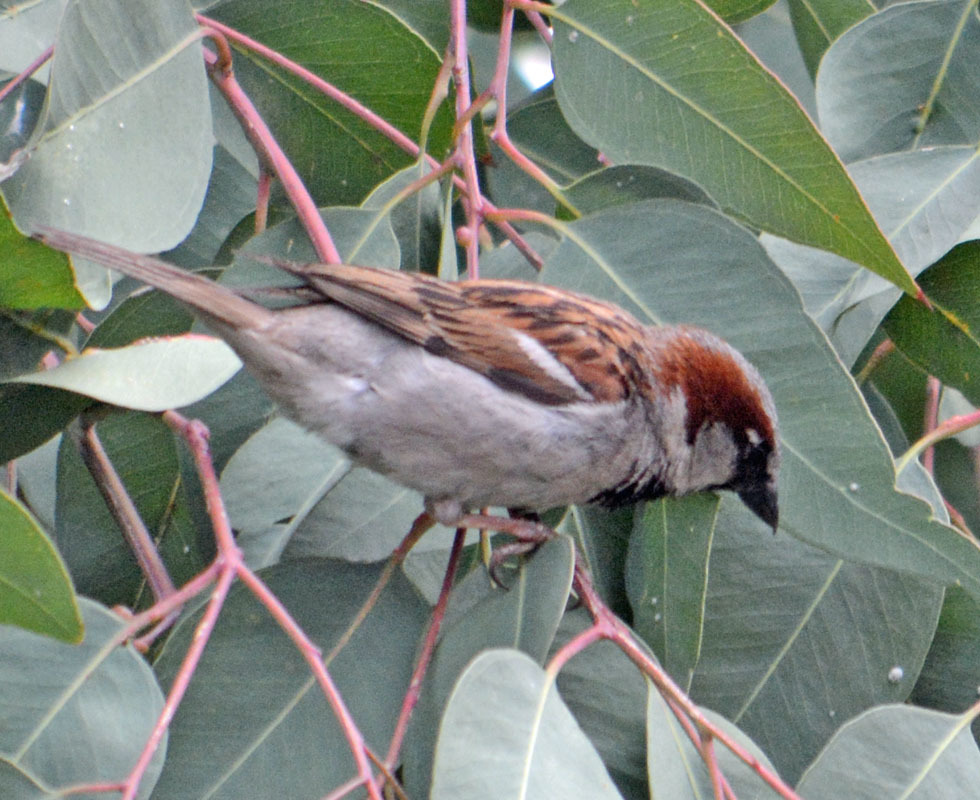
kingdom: Animalia
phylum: Chordata
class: Aves
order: Passeriformes
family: Passeridae
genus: Passer
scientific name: Passer domesticus
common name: House sparrow
